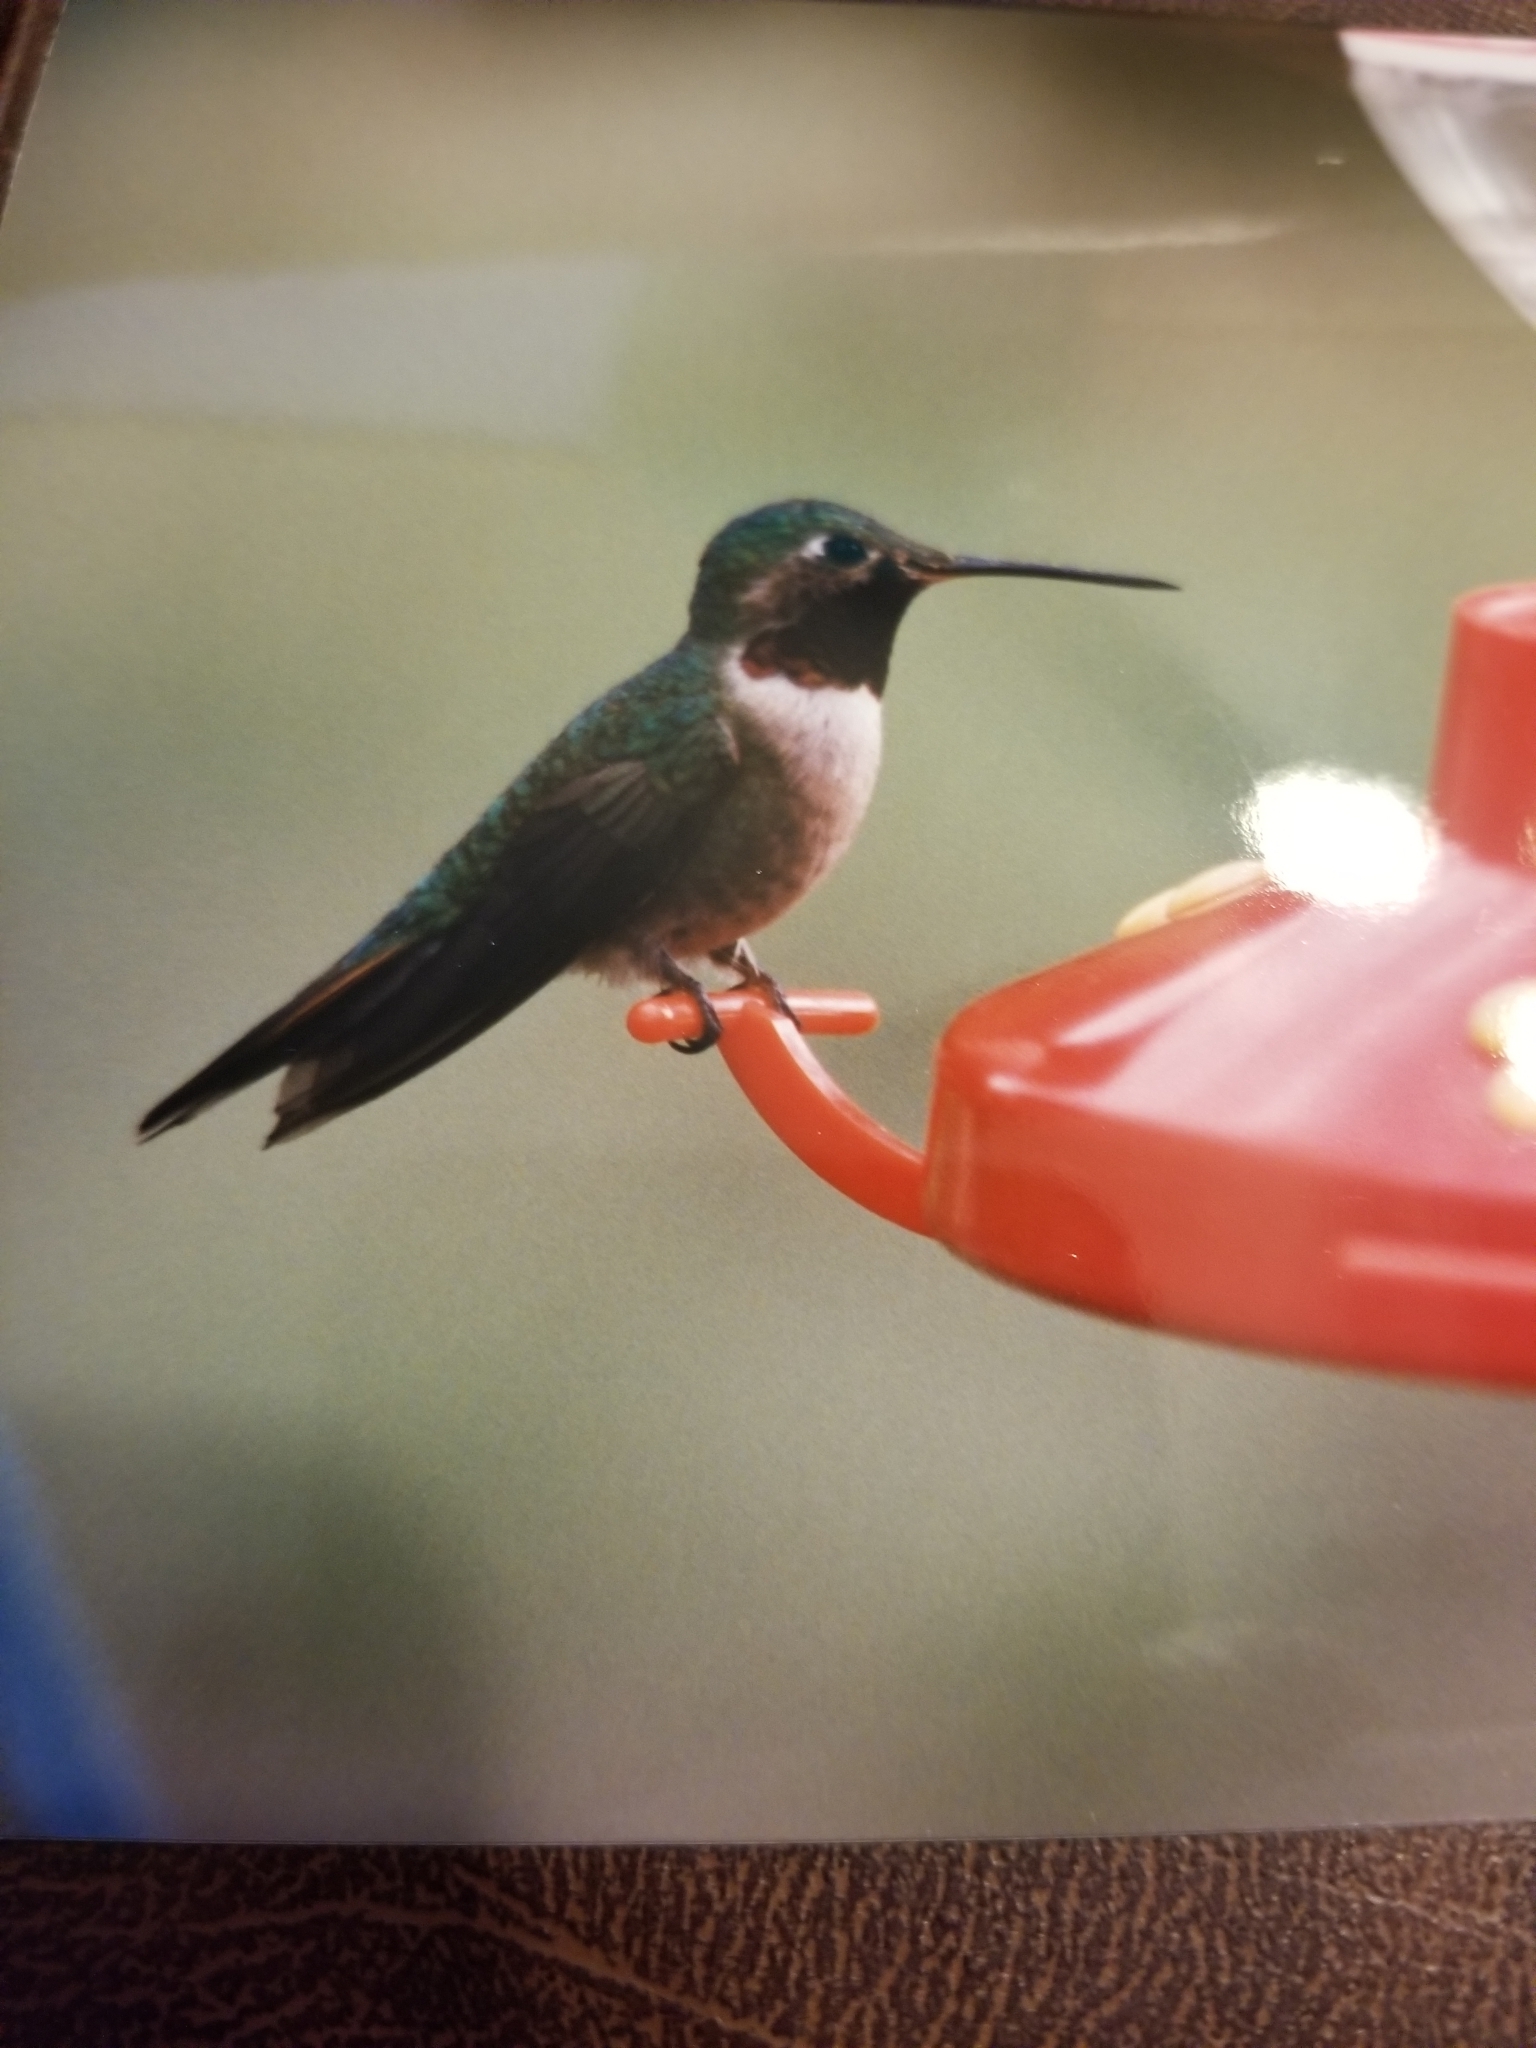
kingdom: Animalia
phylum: Chordata
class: Aves
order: Apodiformes
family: Trochilidae
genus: Selasphorus
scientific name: Selasphorus platycercus
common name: Broad-tailed hummingbird
